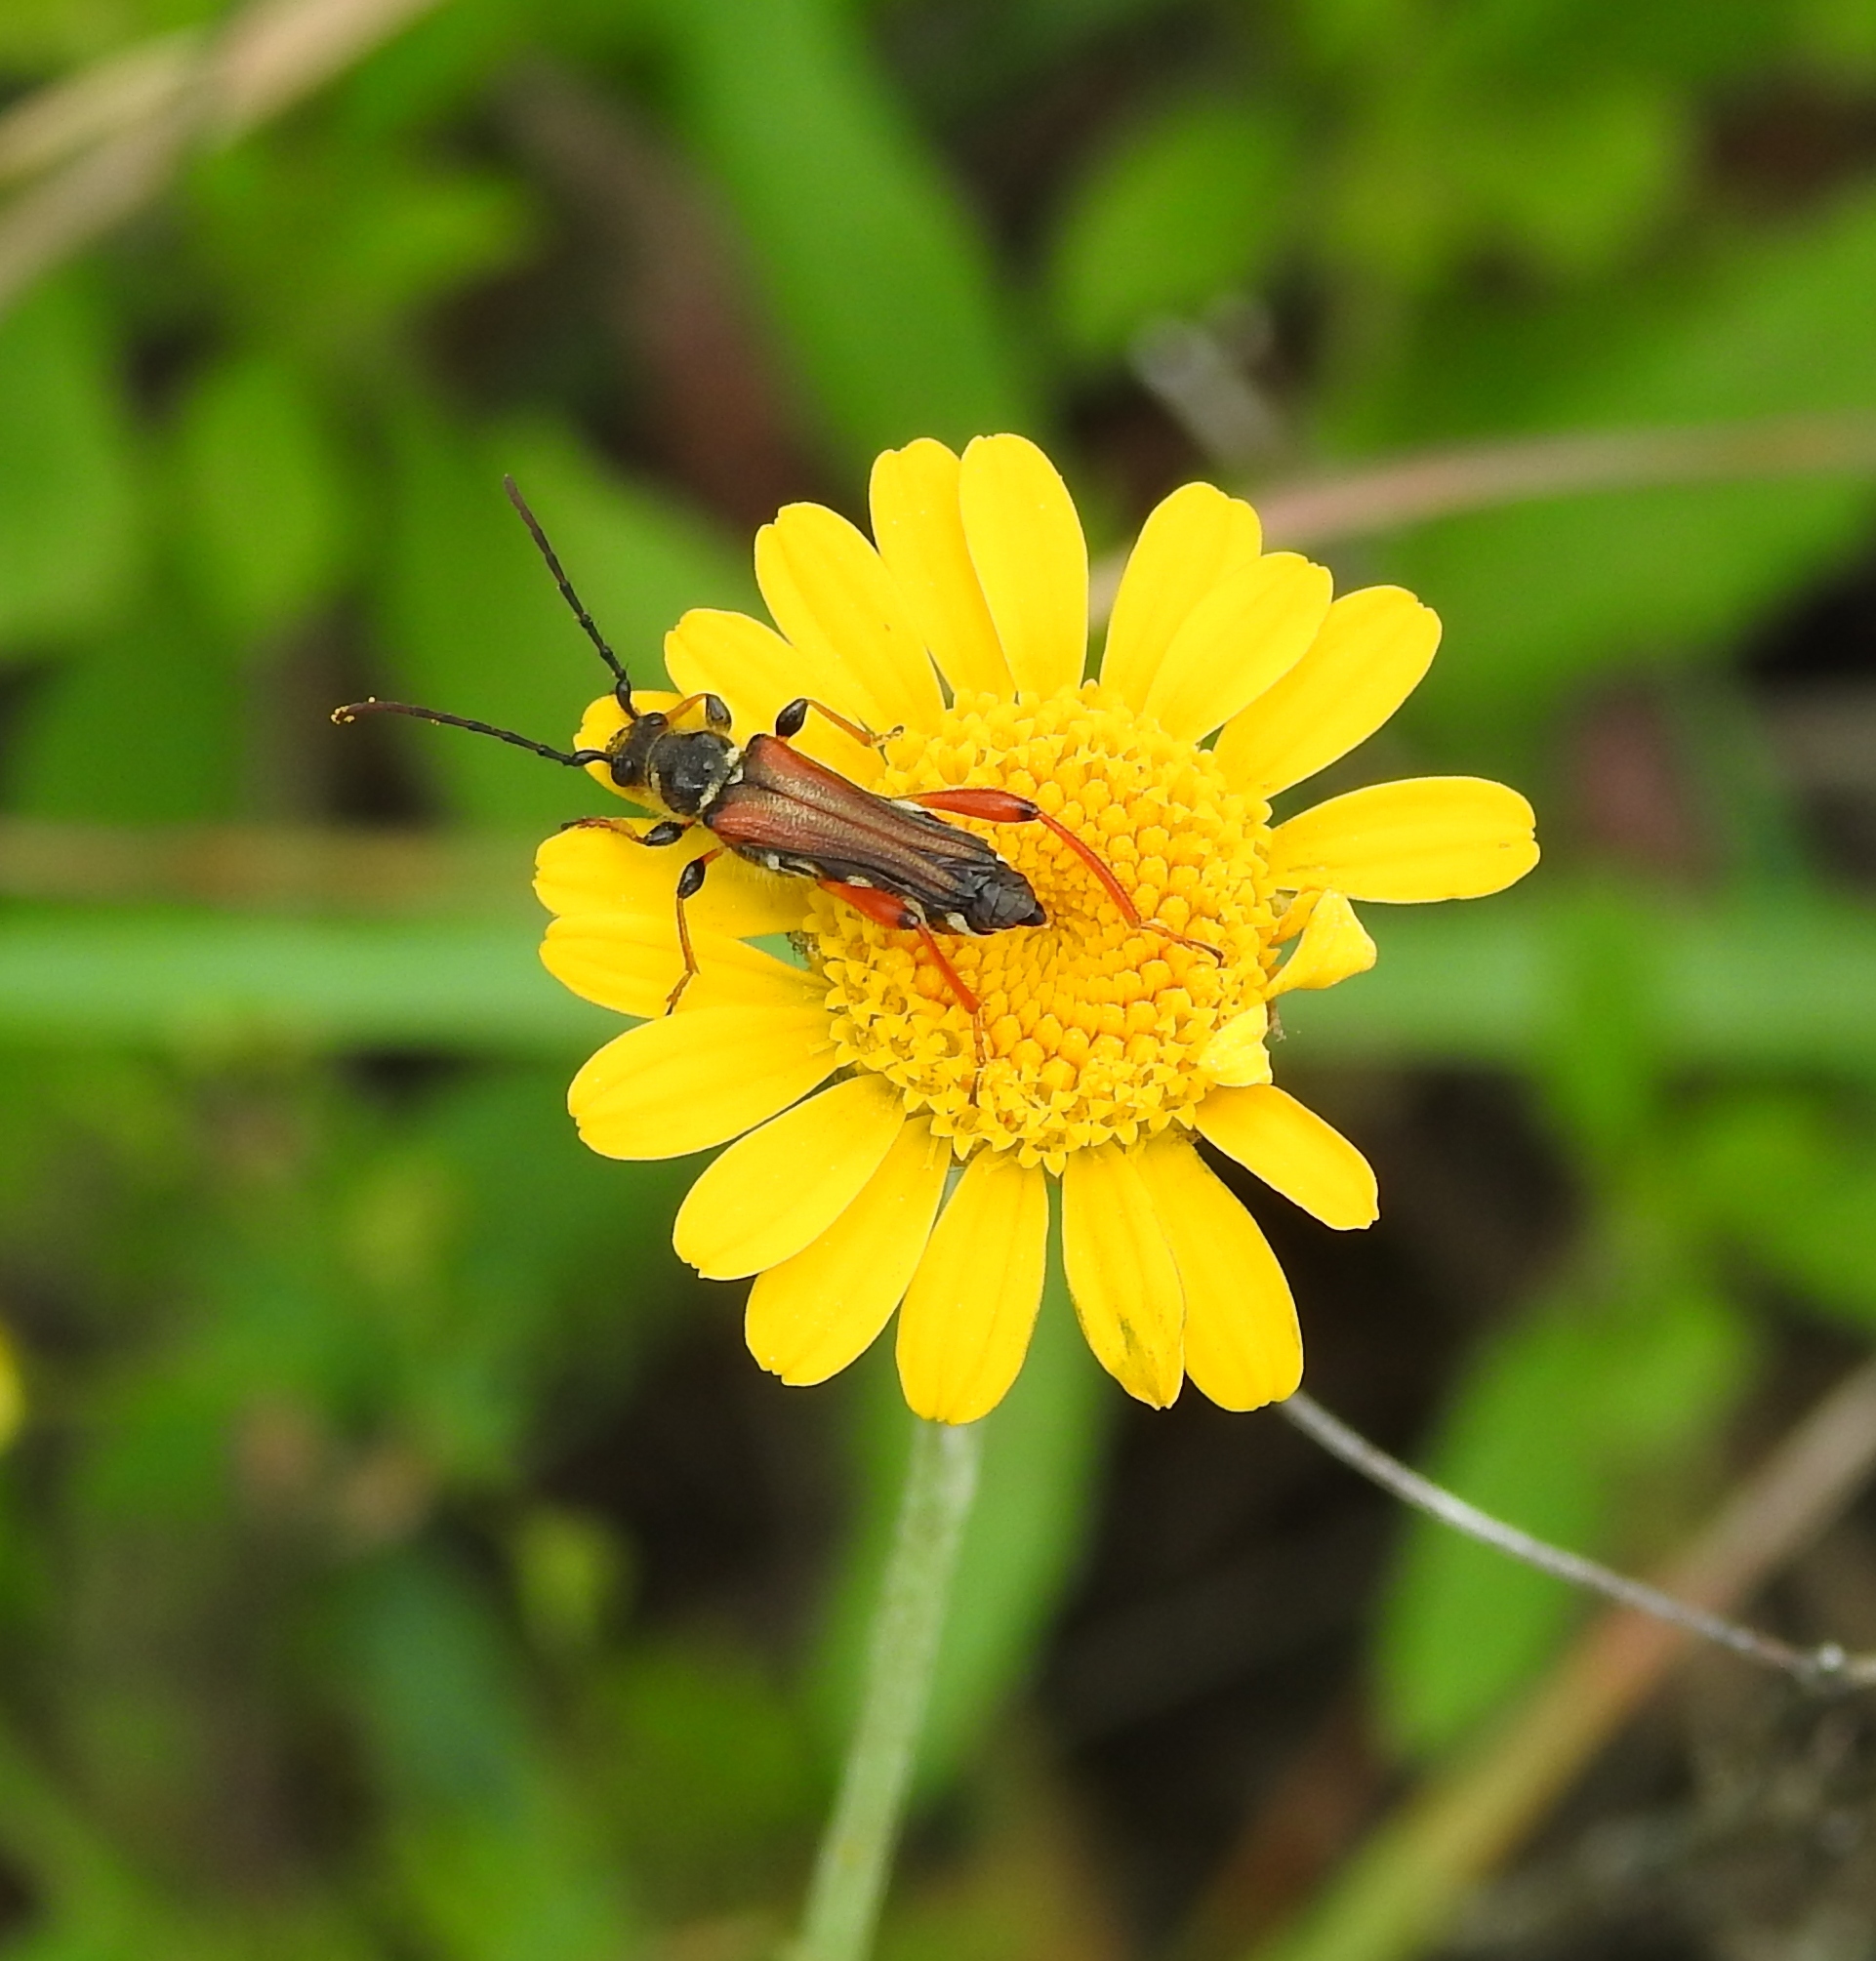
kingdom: Animalia
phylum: Arthropoda
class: Insecta
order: Coleoptera
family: Cerambycidae
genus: Stenopterus
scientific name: Stenopterus rufus
